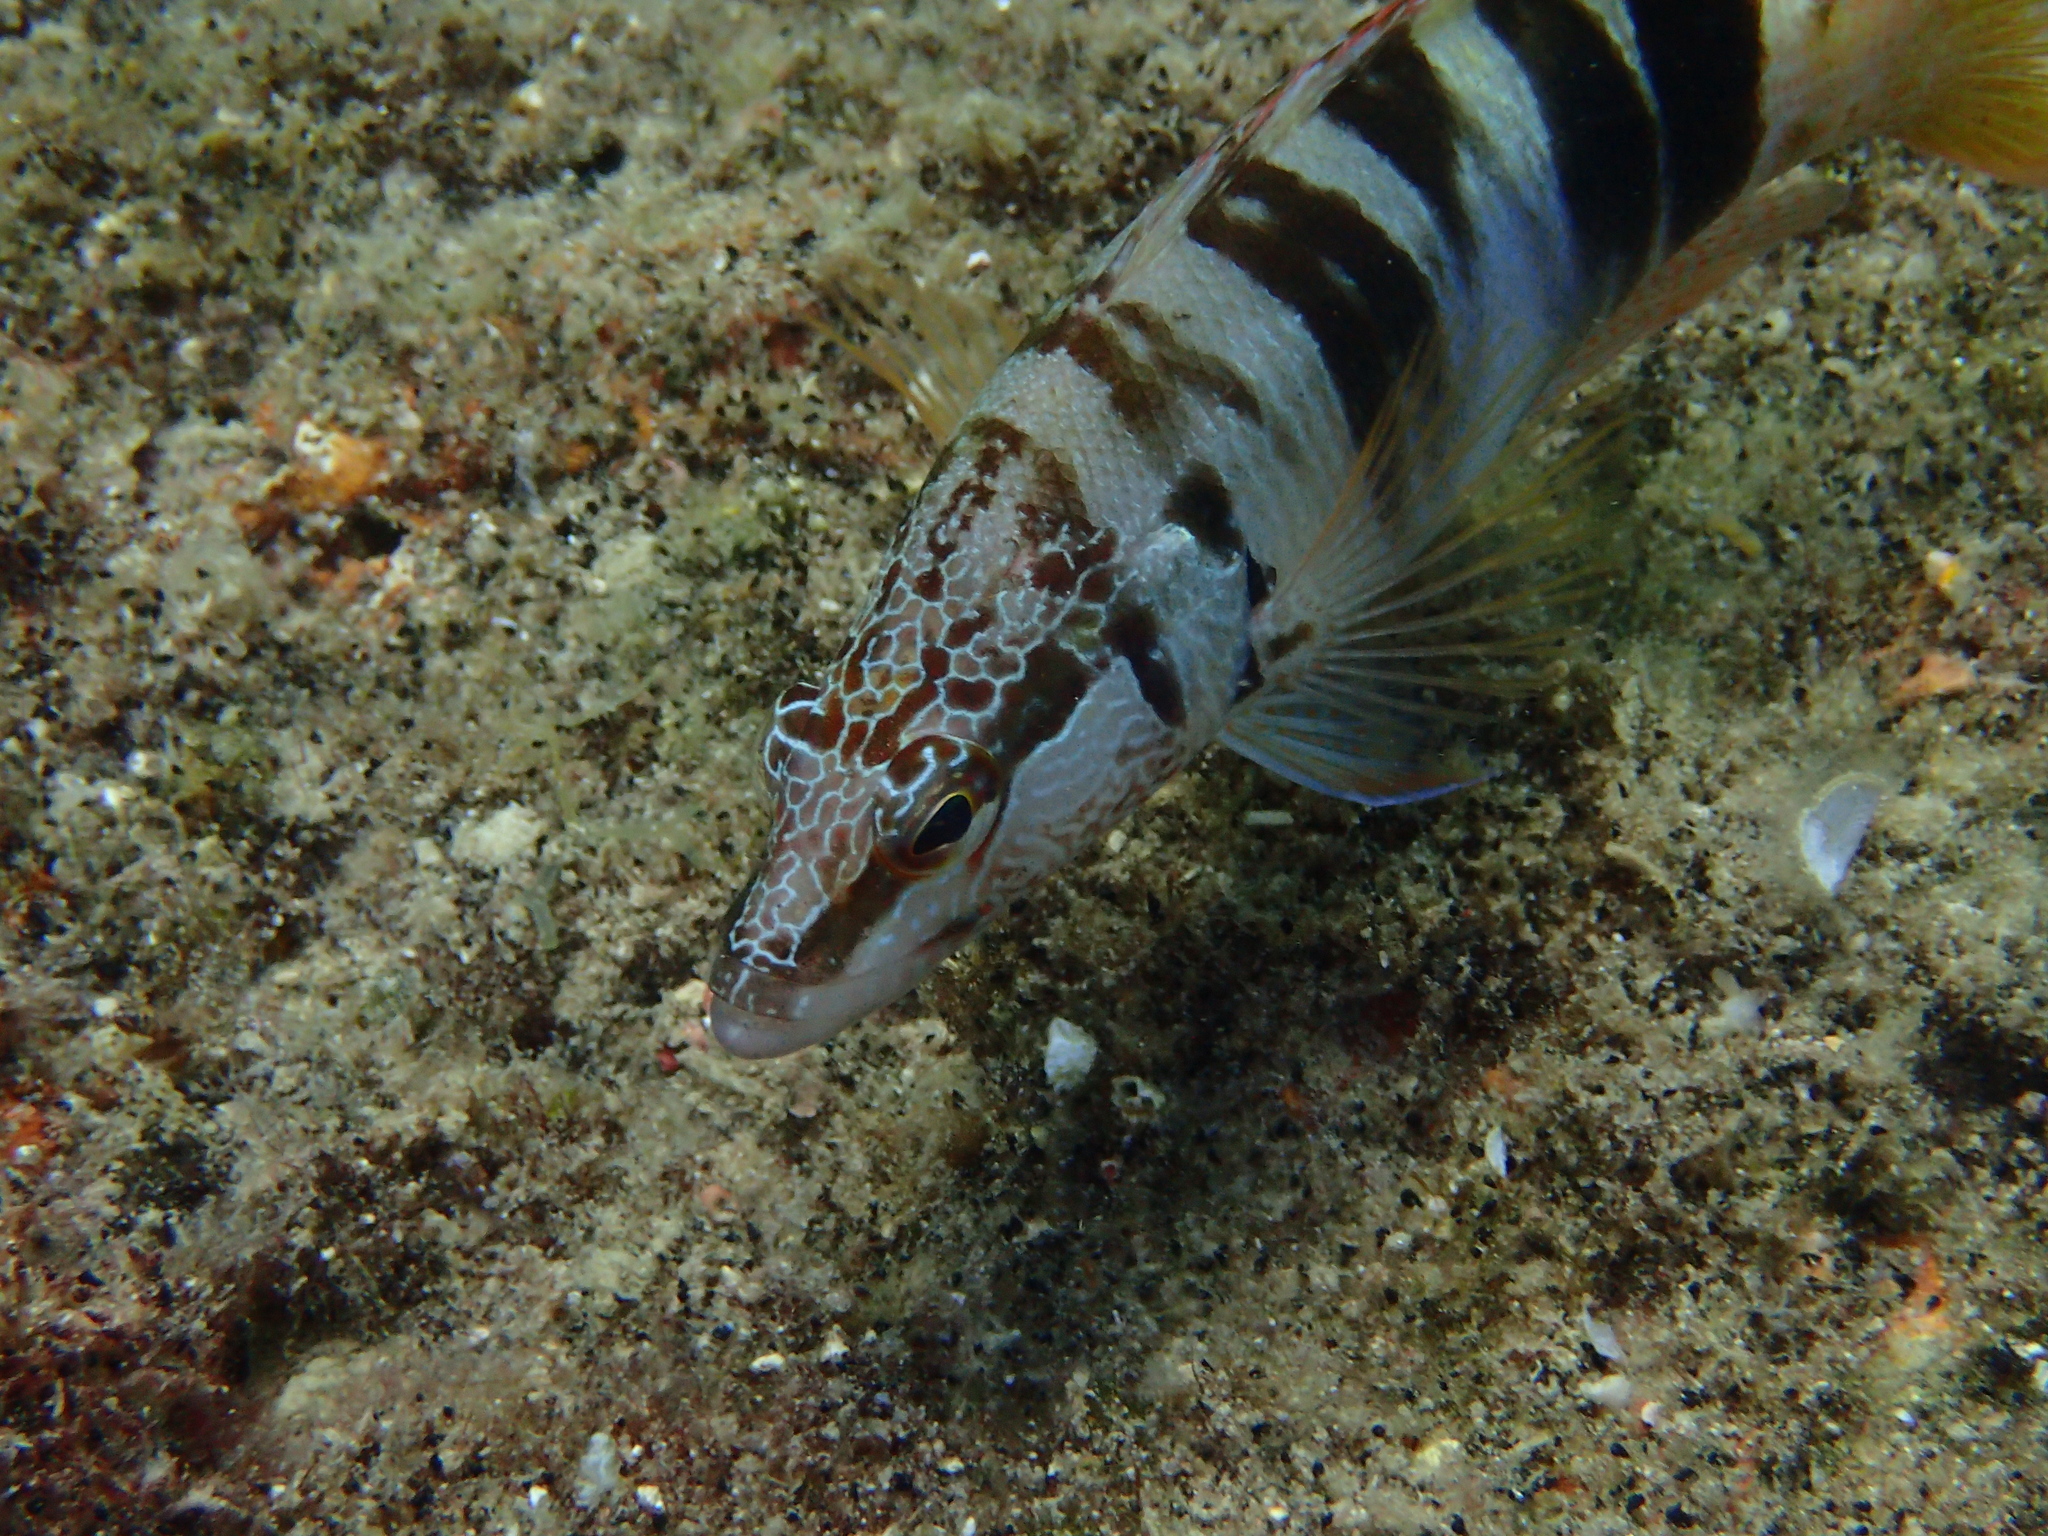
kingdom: Animalia
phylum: Chordata
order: Perciformes
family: Serranidae
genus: Serranus
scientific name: Serranus scriba
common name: Painted comber
